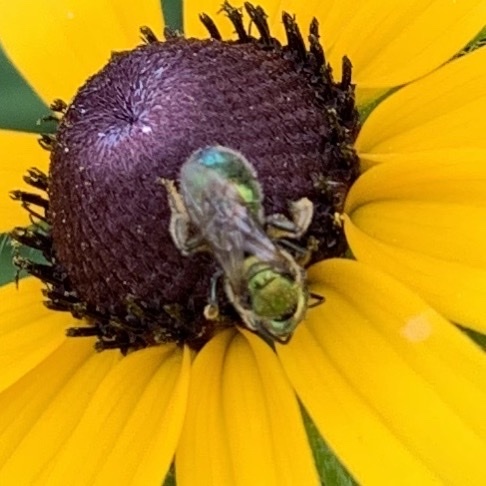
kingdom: Animalia
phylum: Arthropoda
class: Insecta
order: Hymenoptera
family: Halictidae
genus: Augochlorella
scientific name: Augochlorella aurata
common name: Golden sweat bee
